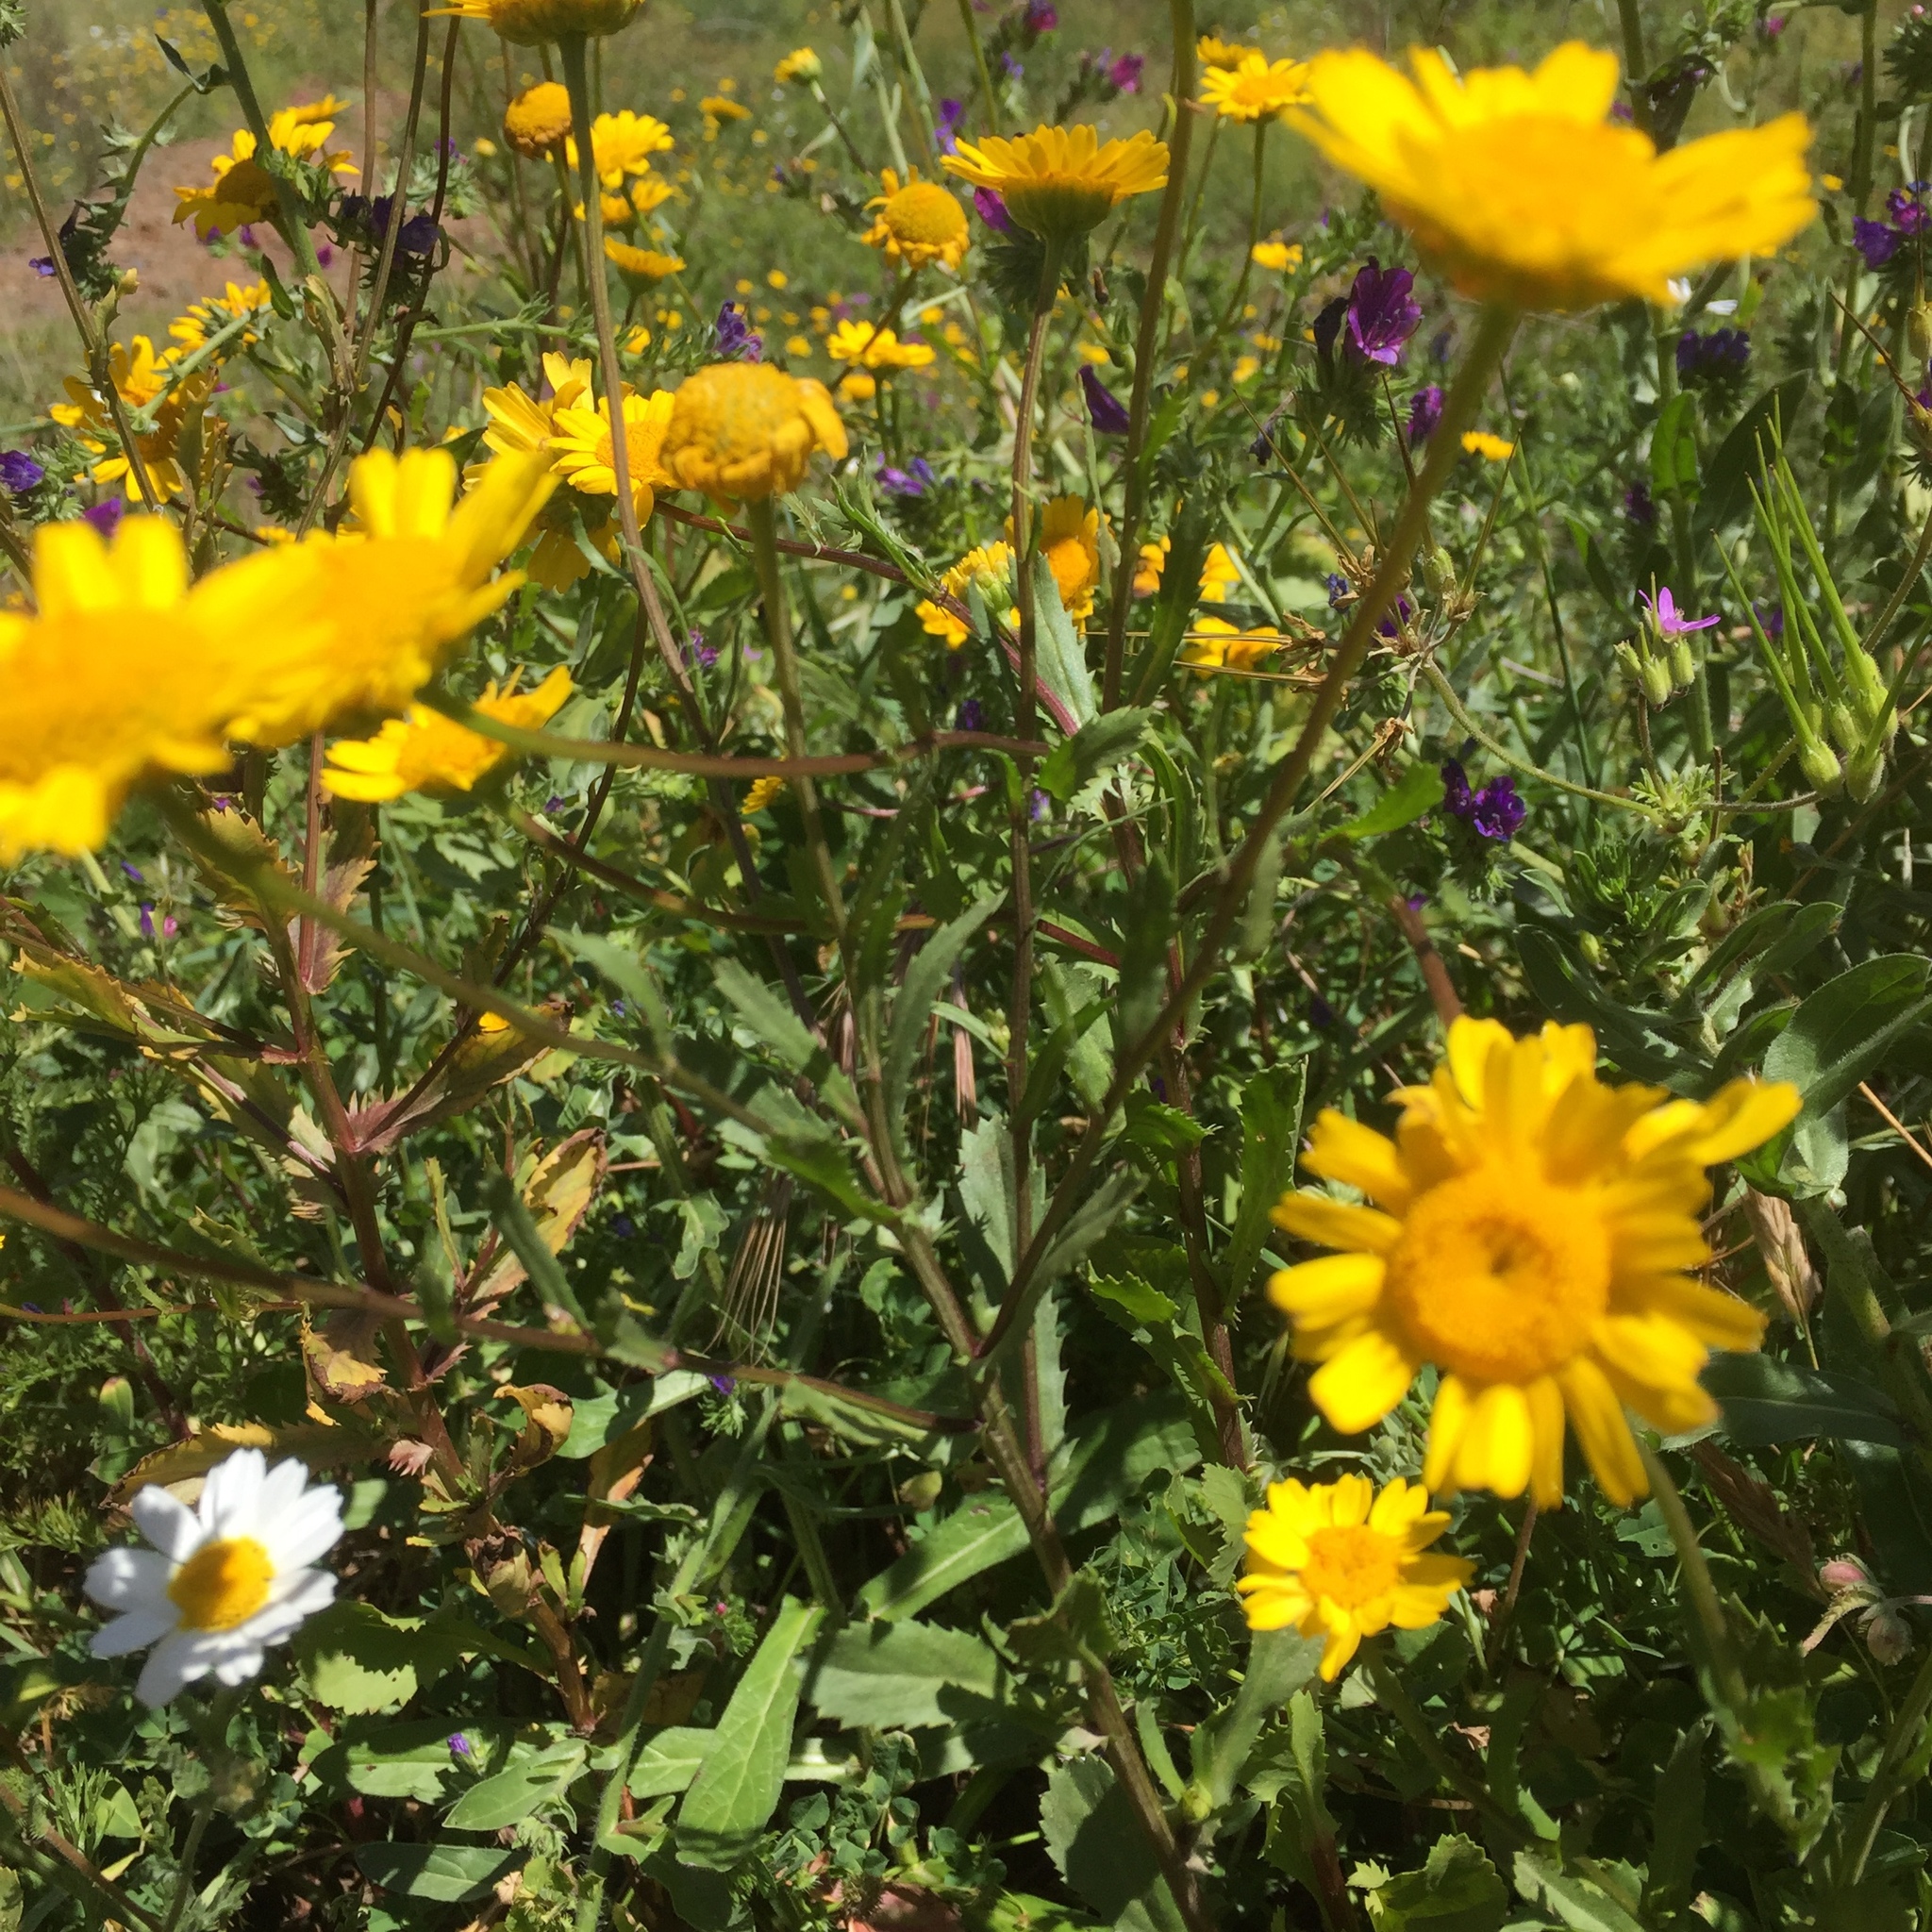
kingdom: Plantae
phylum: Tracheophyta
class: Magnoliopsida
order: Asterales
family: Asteraceae
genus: Coleostephus
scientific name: Coleostephus myconis
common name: Mediterranean marigold
